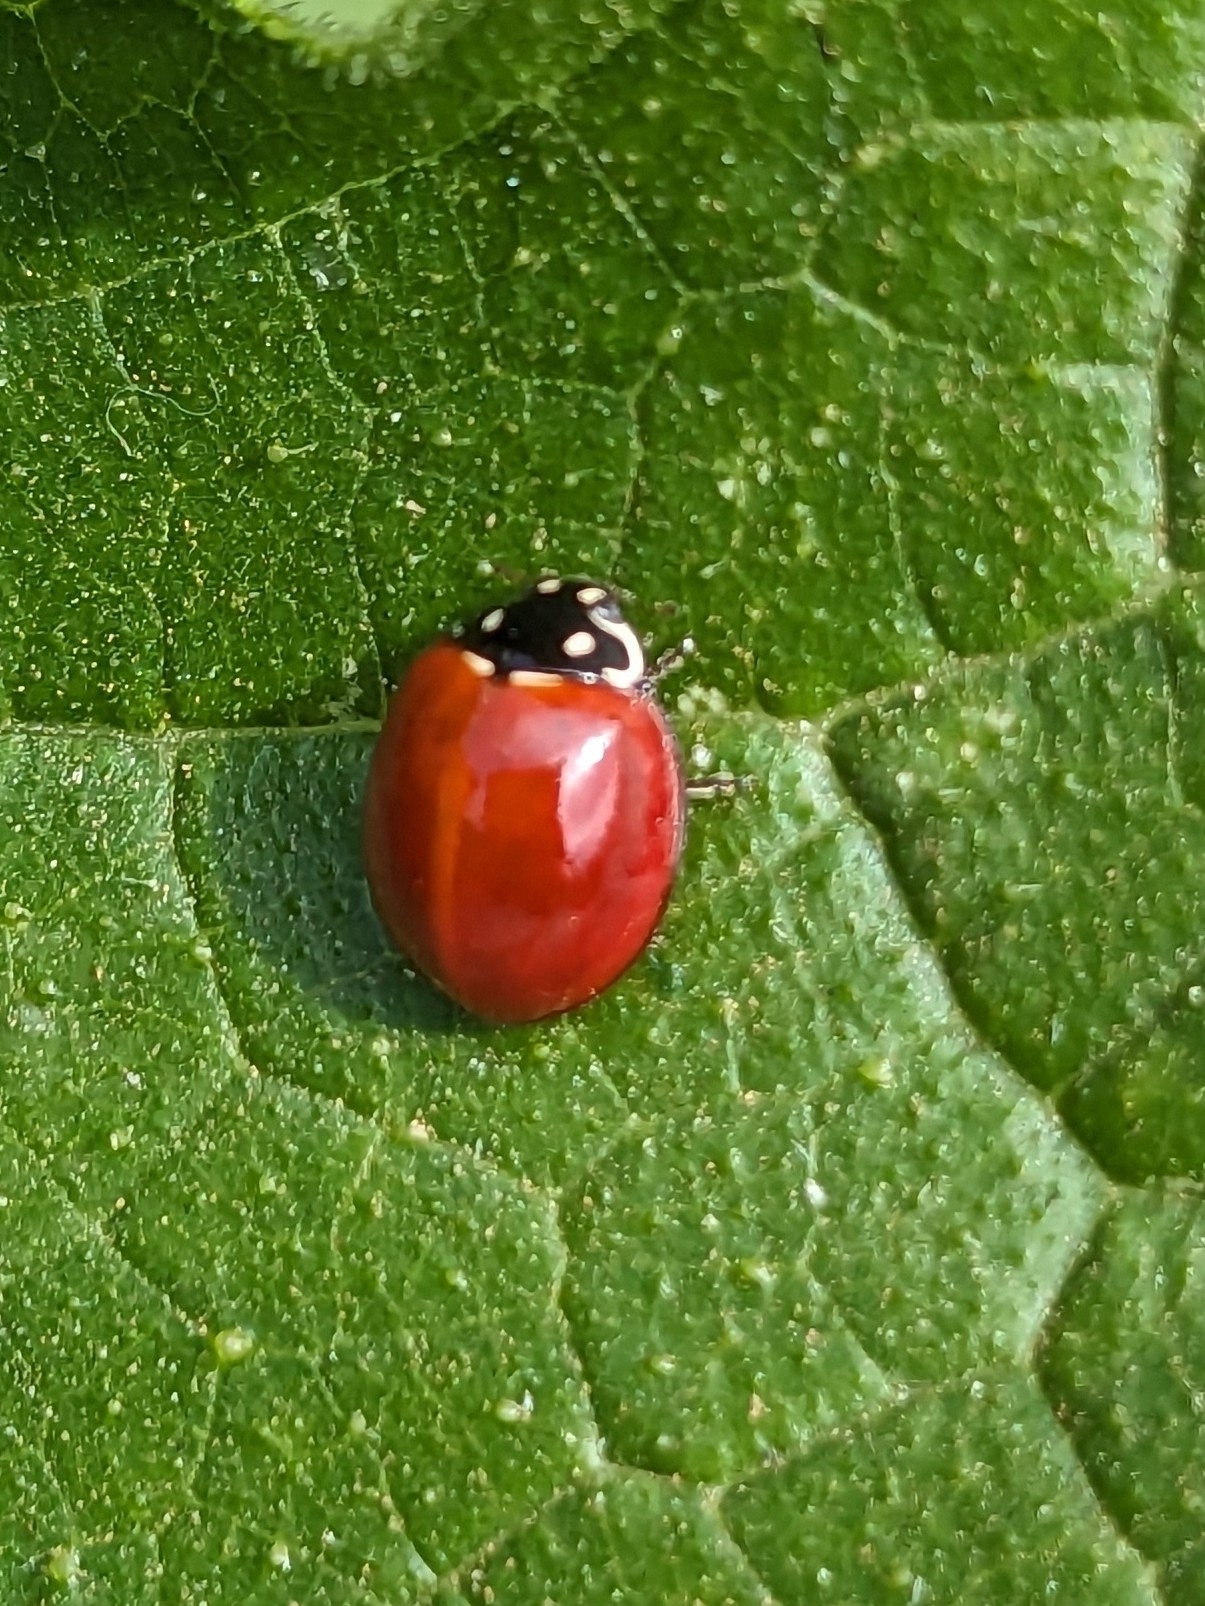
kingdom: Animalia
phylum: Arthropoda
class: Insecta
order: Coleoptera
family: Coccinellidae
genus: Cycloneda
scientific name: Cycloneda sanguinea
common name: Ladybird beetle
